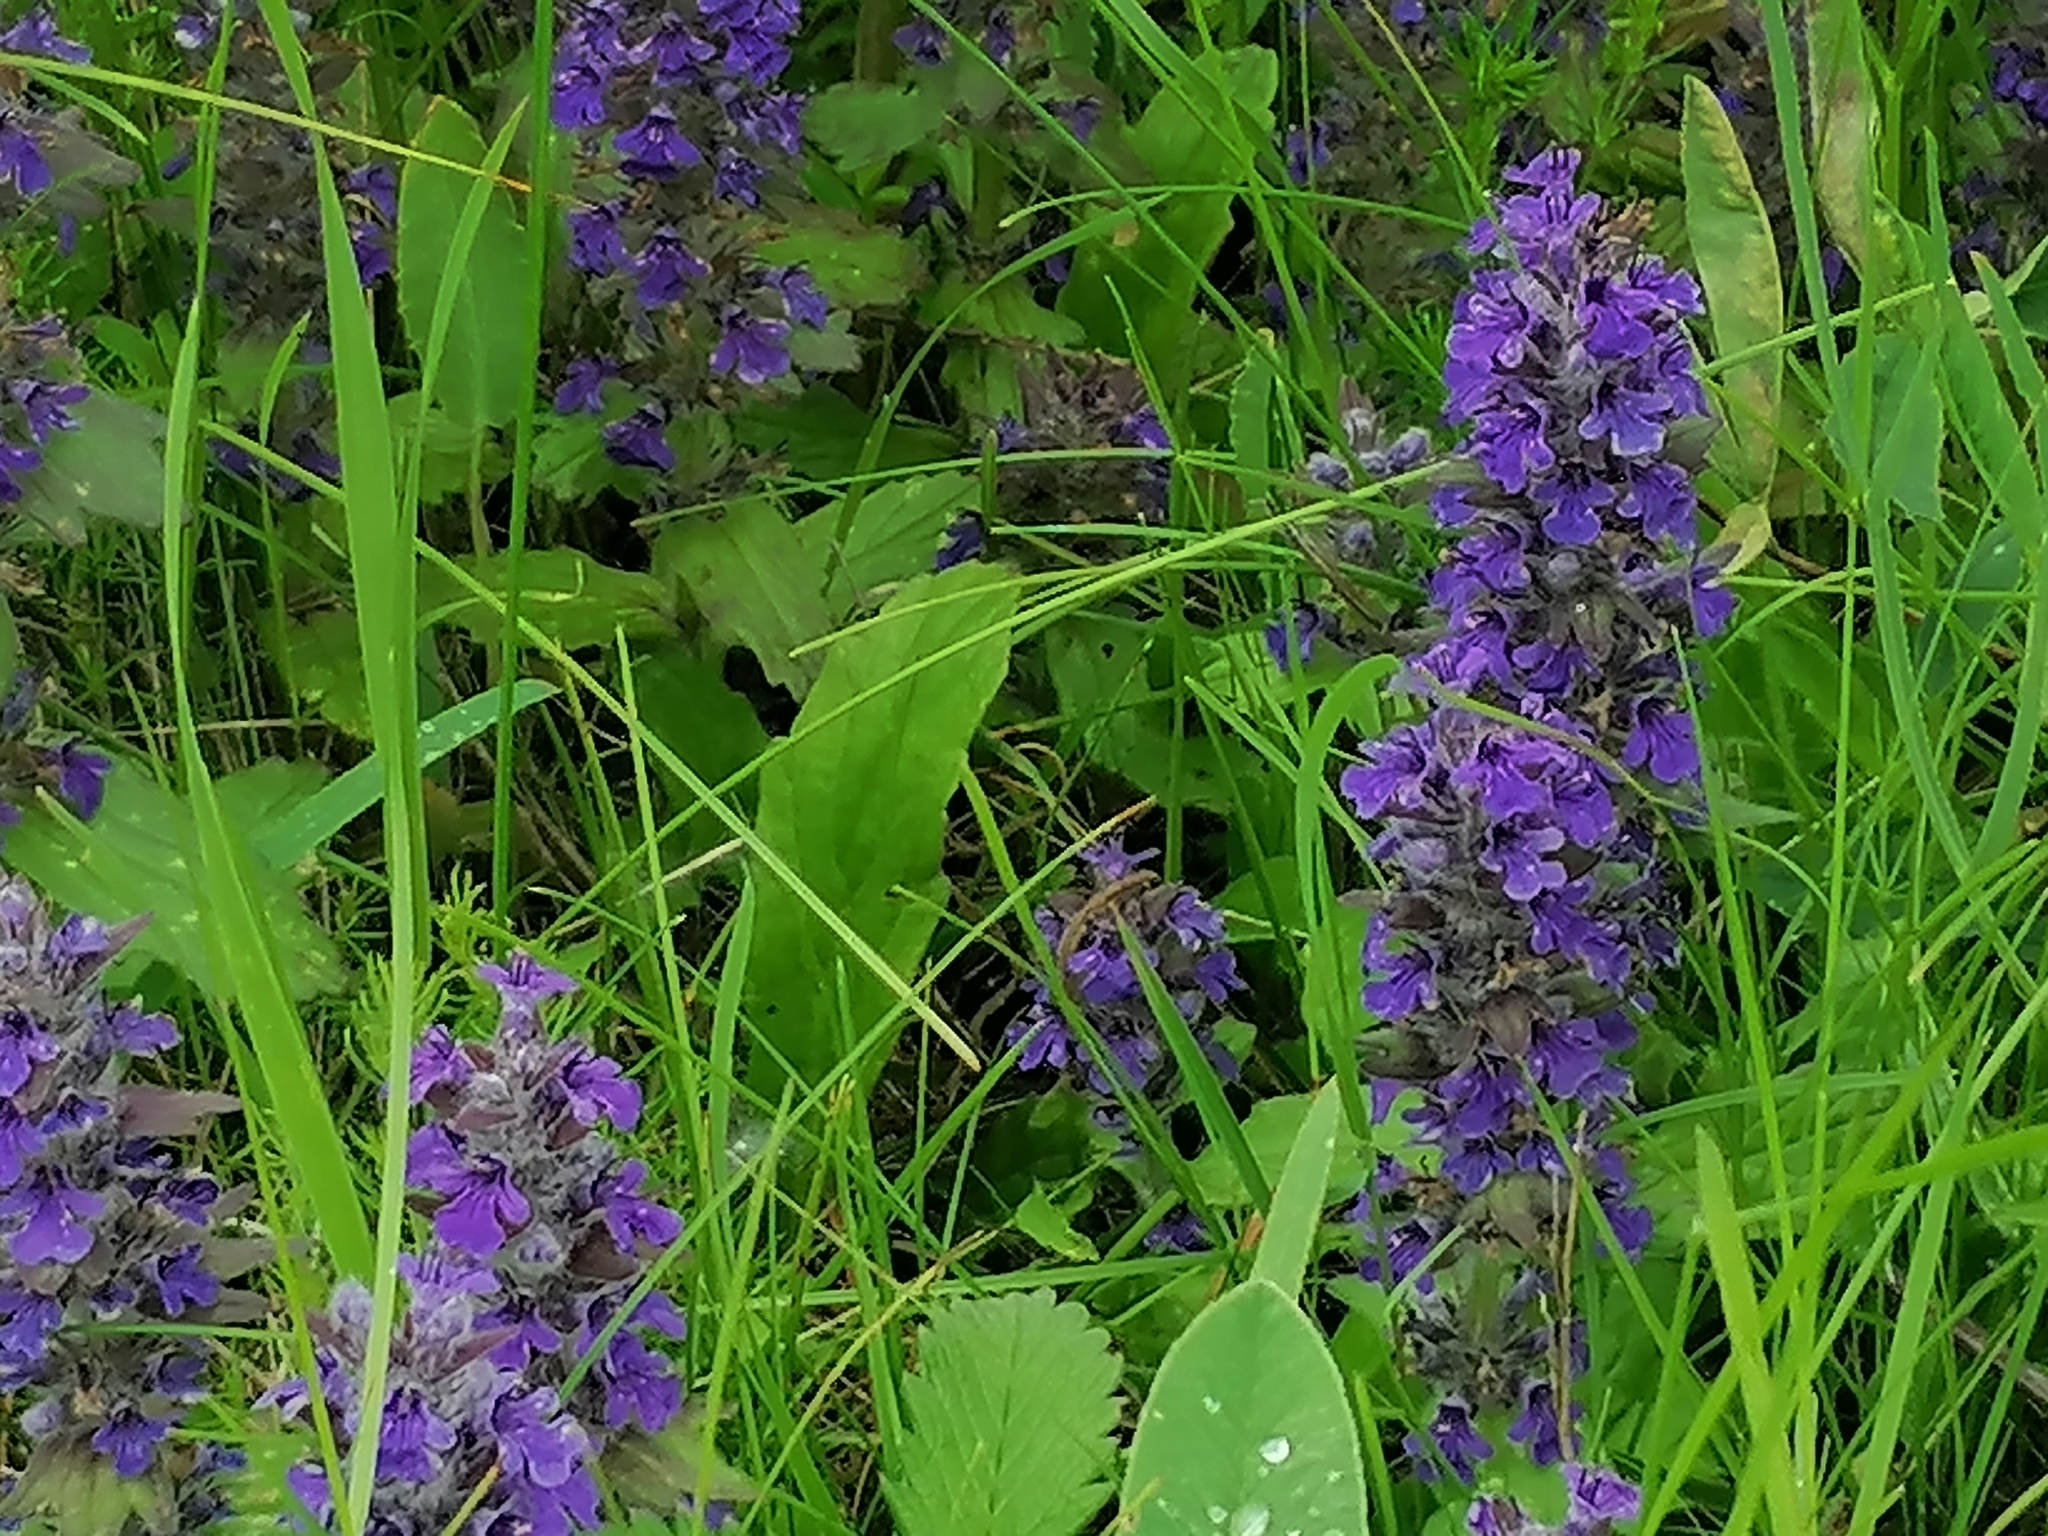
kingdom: Plantae
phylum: Tracheophyta
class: Magnoliopsida
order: Lamiales
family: Lamiaceae
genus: Ajuga
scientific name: Ajuga genevensis
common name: Blue bugle
